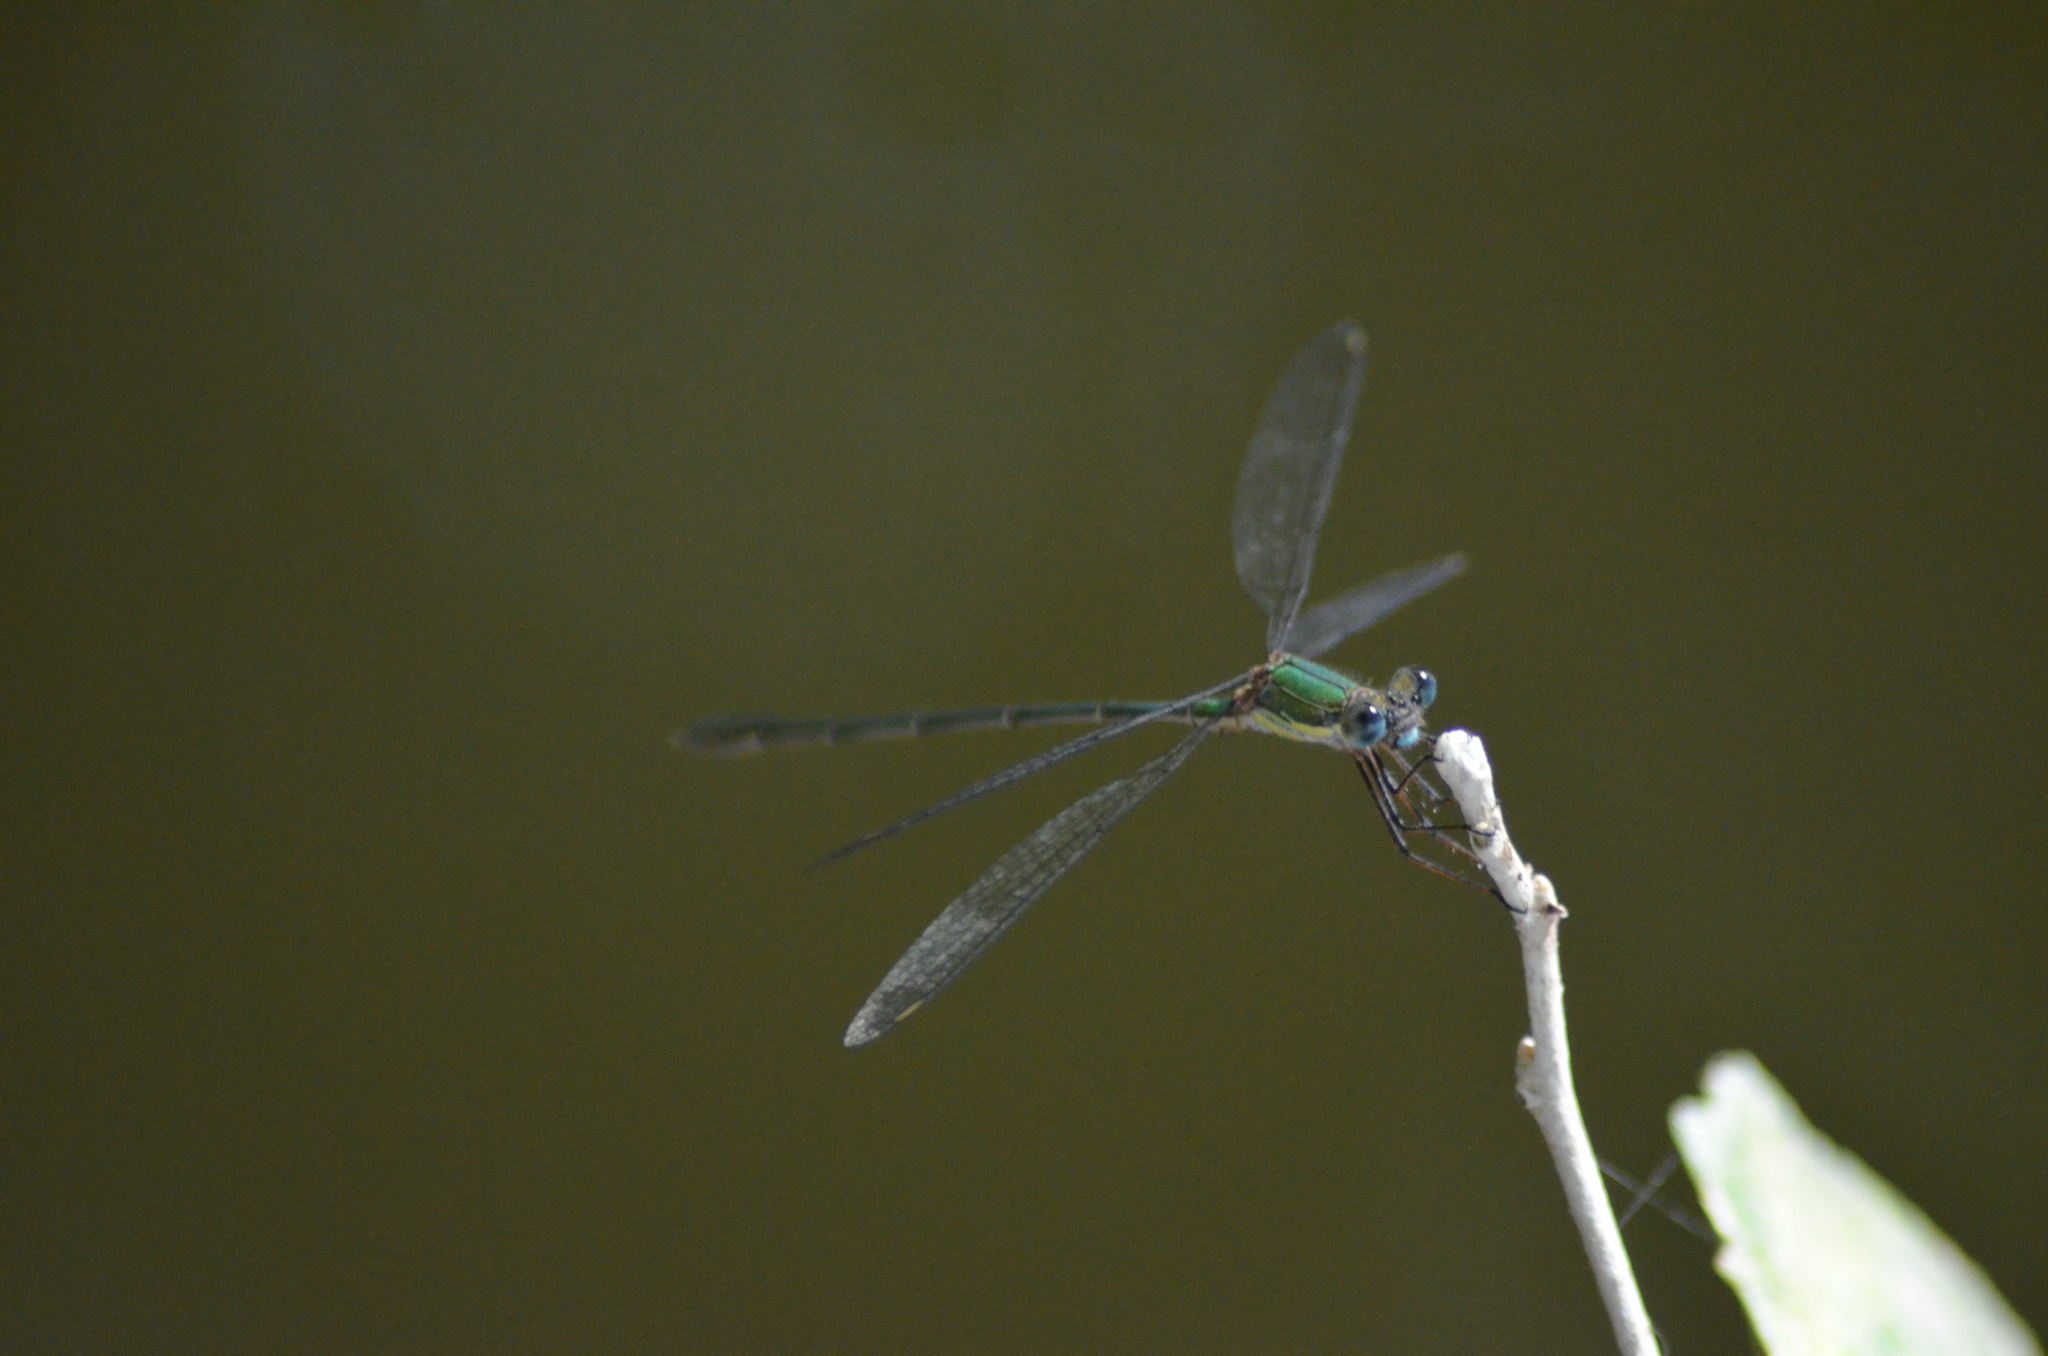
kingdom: Animalia
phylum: Arthropoda
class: Insecta
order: Odonata
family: Lestidae
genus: Chalcolestes
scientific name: Chalcolestes viridis
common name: Green emerald damselfly
